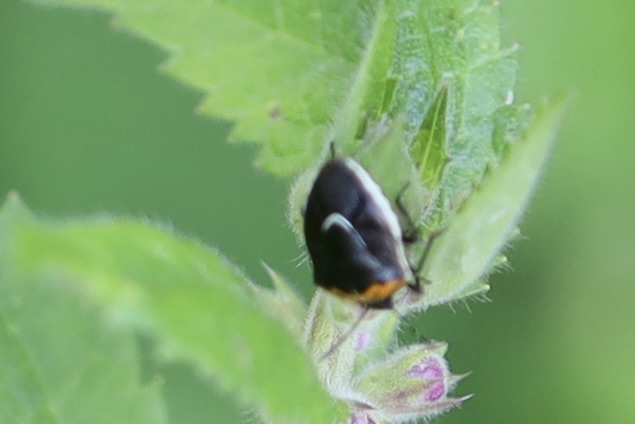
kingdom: Animalia
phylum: Arthropoda
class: Insecta
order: Hemiptera
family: Pentatomidae
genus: Cosmopepla
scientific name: Cosmopepla conspicillaris
